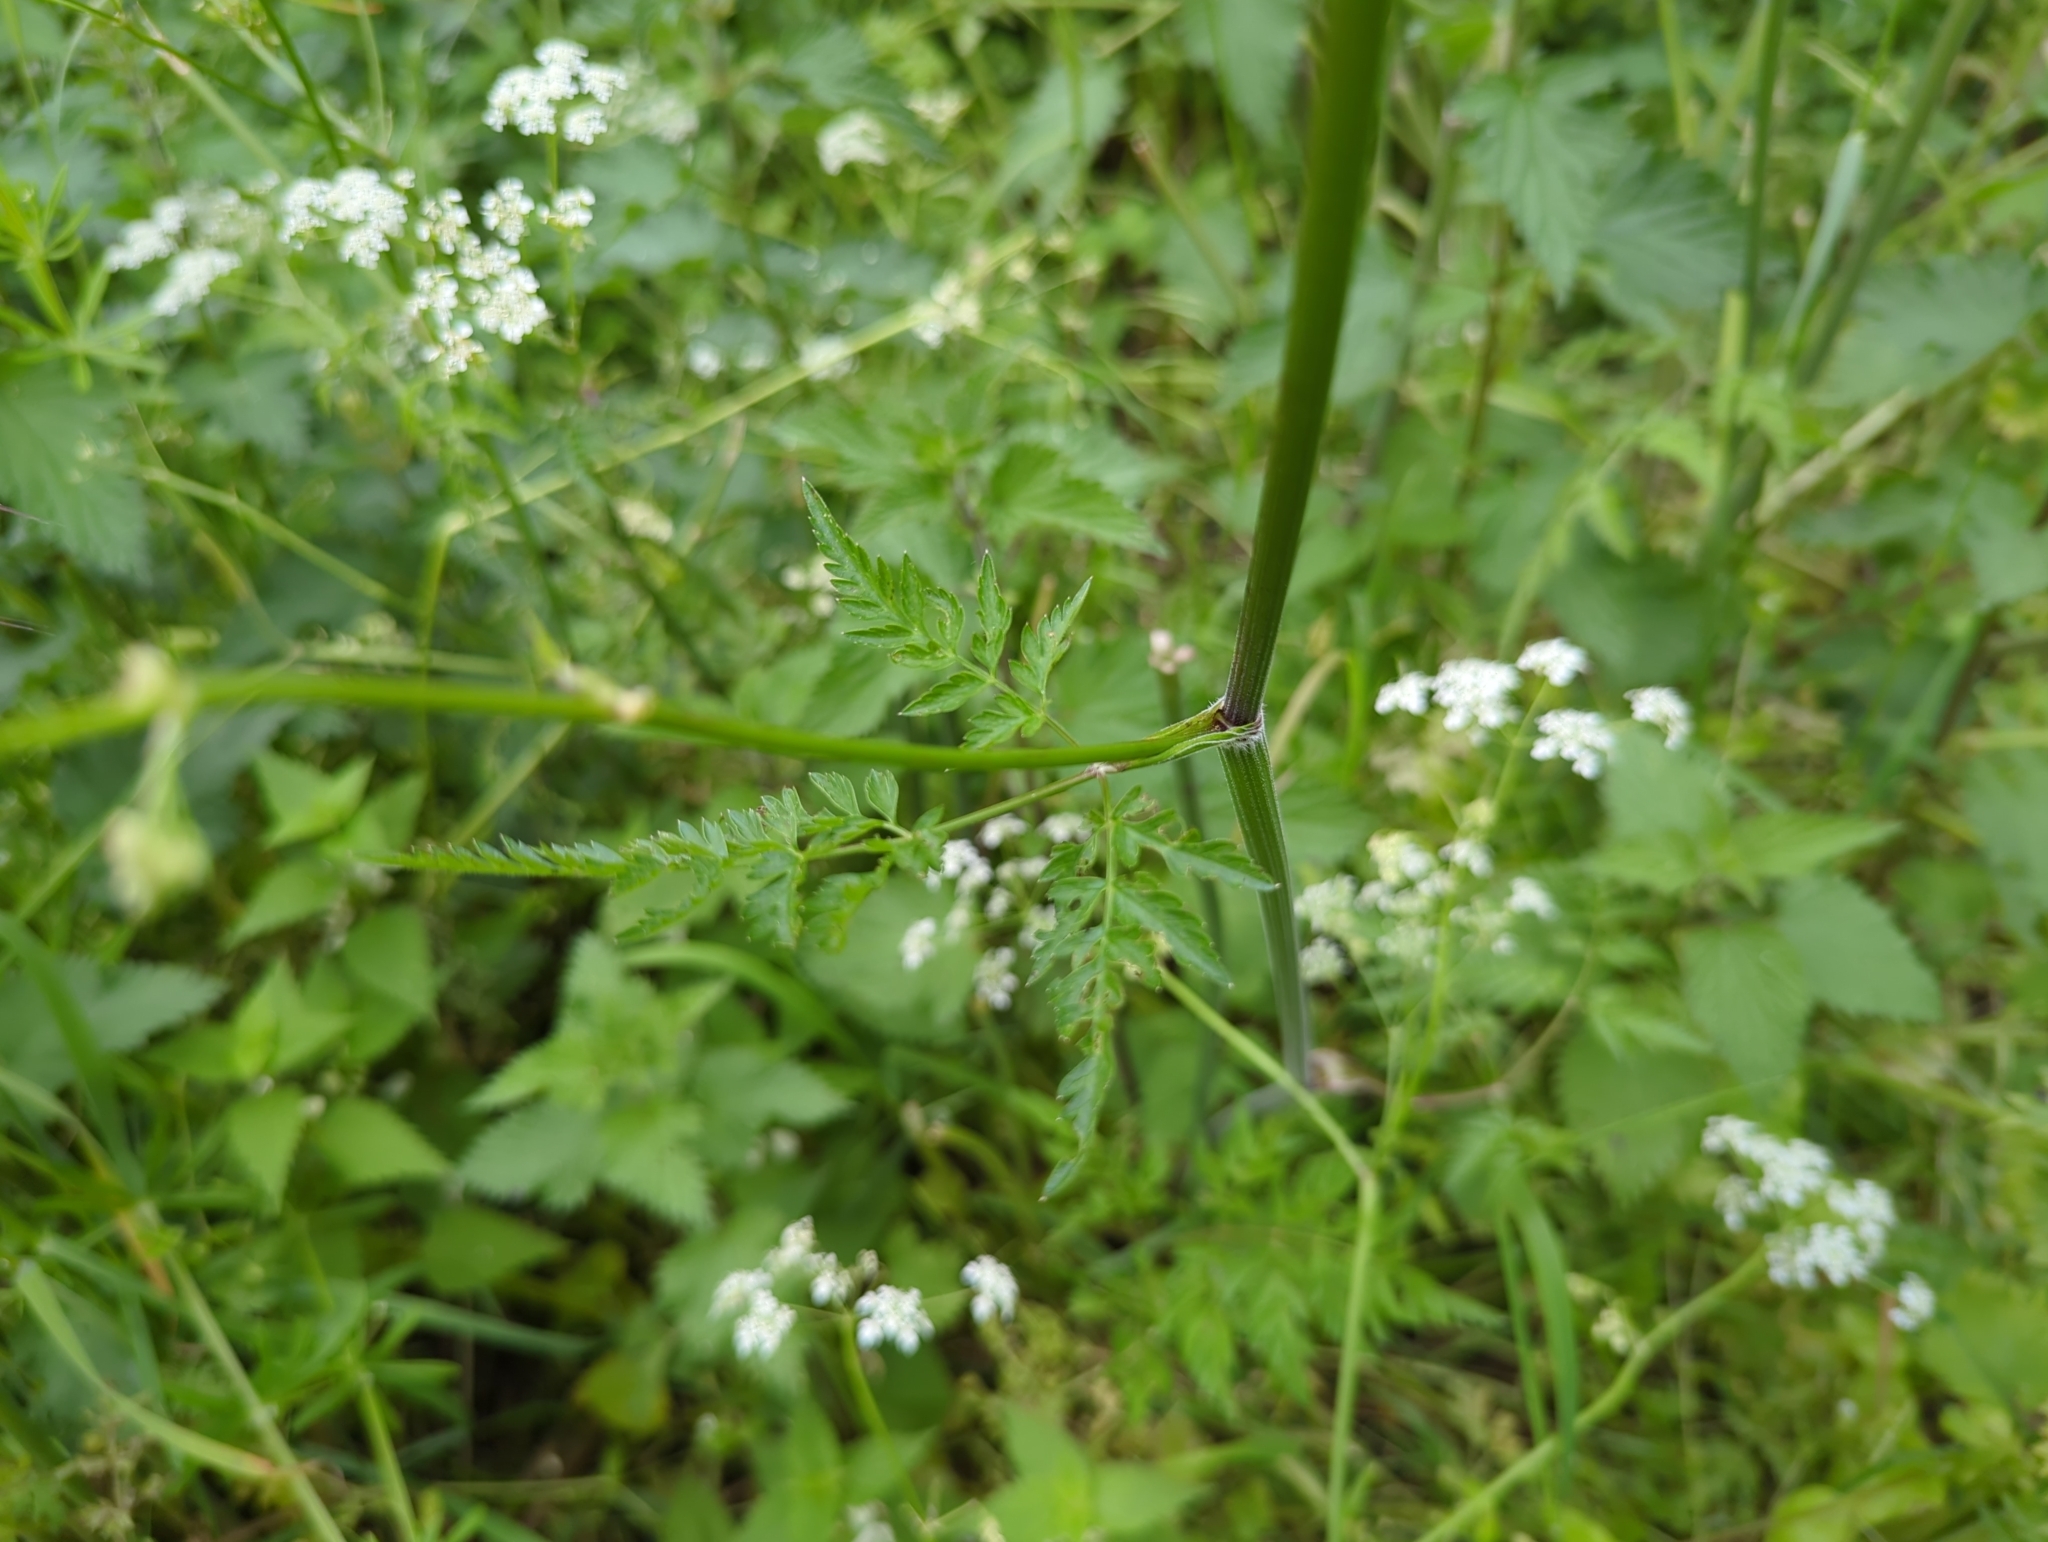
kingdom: Plantae
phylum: Tracheophyta
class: Magnoliopsida
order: Apiales
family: Apiaceae
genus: Anthriscus
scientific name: Anthriscus sylvestris
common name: Cow parsley
